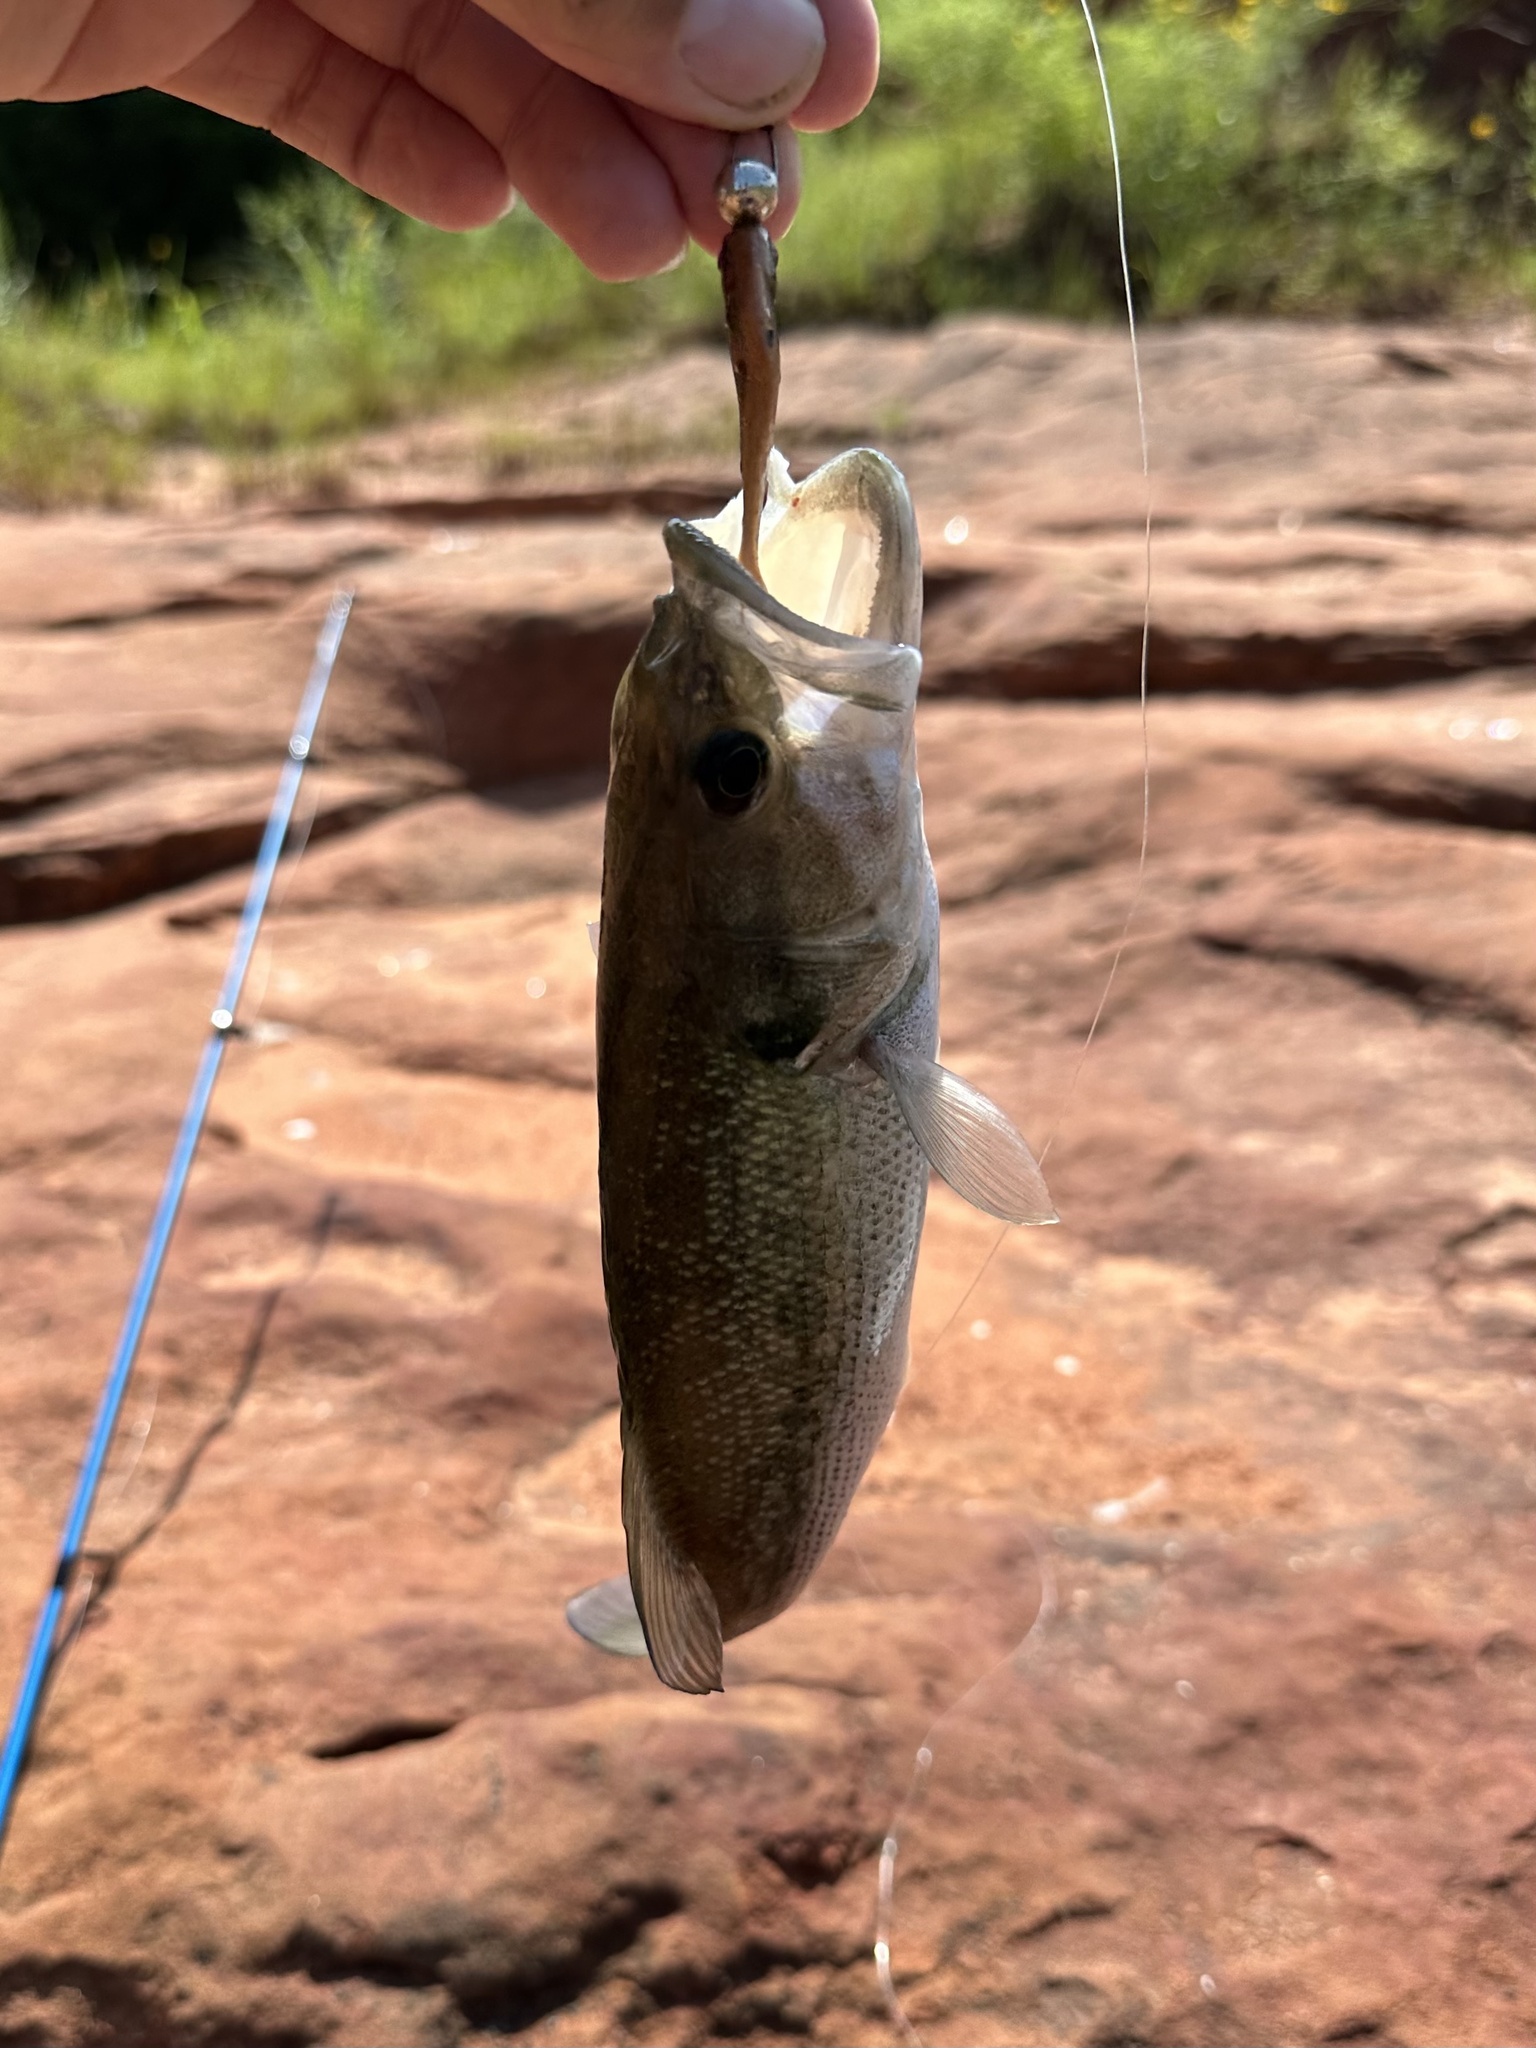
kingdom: Animalia
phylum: Chordata
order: Perciformes
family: Centrarchidae
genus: Micropterus
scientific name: Micropterus punctulatus
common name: Spotted bass
